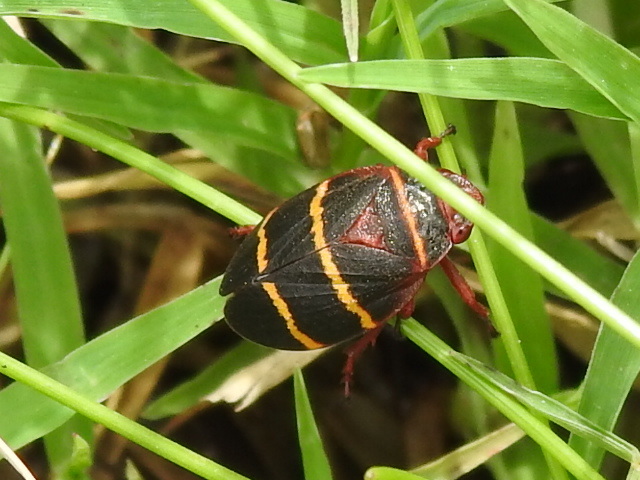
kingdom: Animalia
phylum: Arthropoda
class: Insecta
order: Hemiptera
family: Cercopidae
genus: Prosapia
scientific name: Prosapia bicincta
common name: Twolined spittlebug
